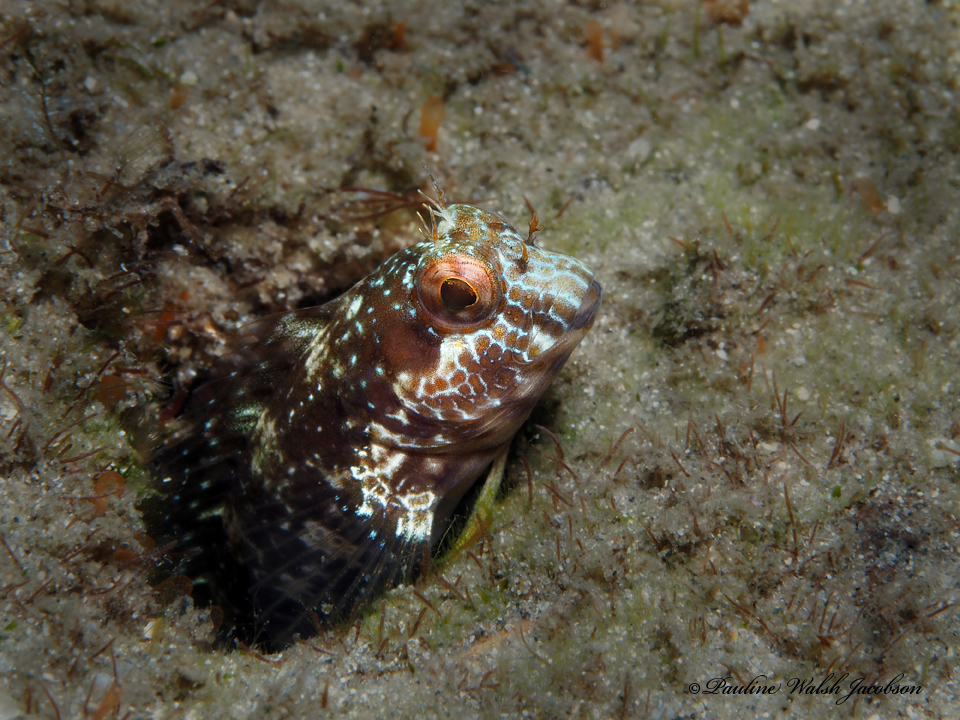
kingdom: Animalia
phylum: Chordata
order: Perciformes
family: Blenniidae
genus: Parablennius
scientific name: Parablennius marmoreus
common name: Seaweed blenny
